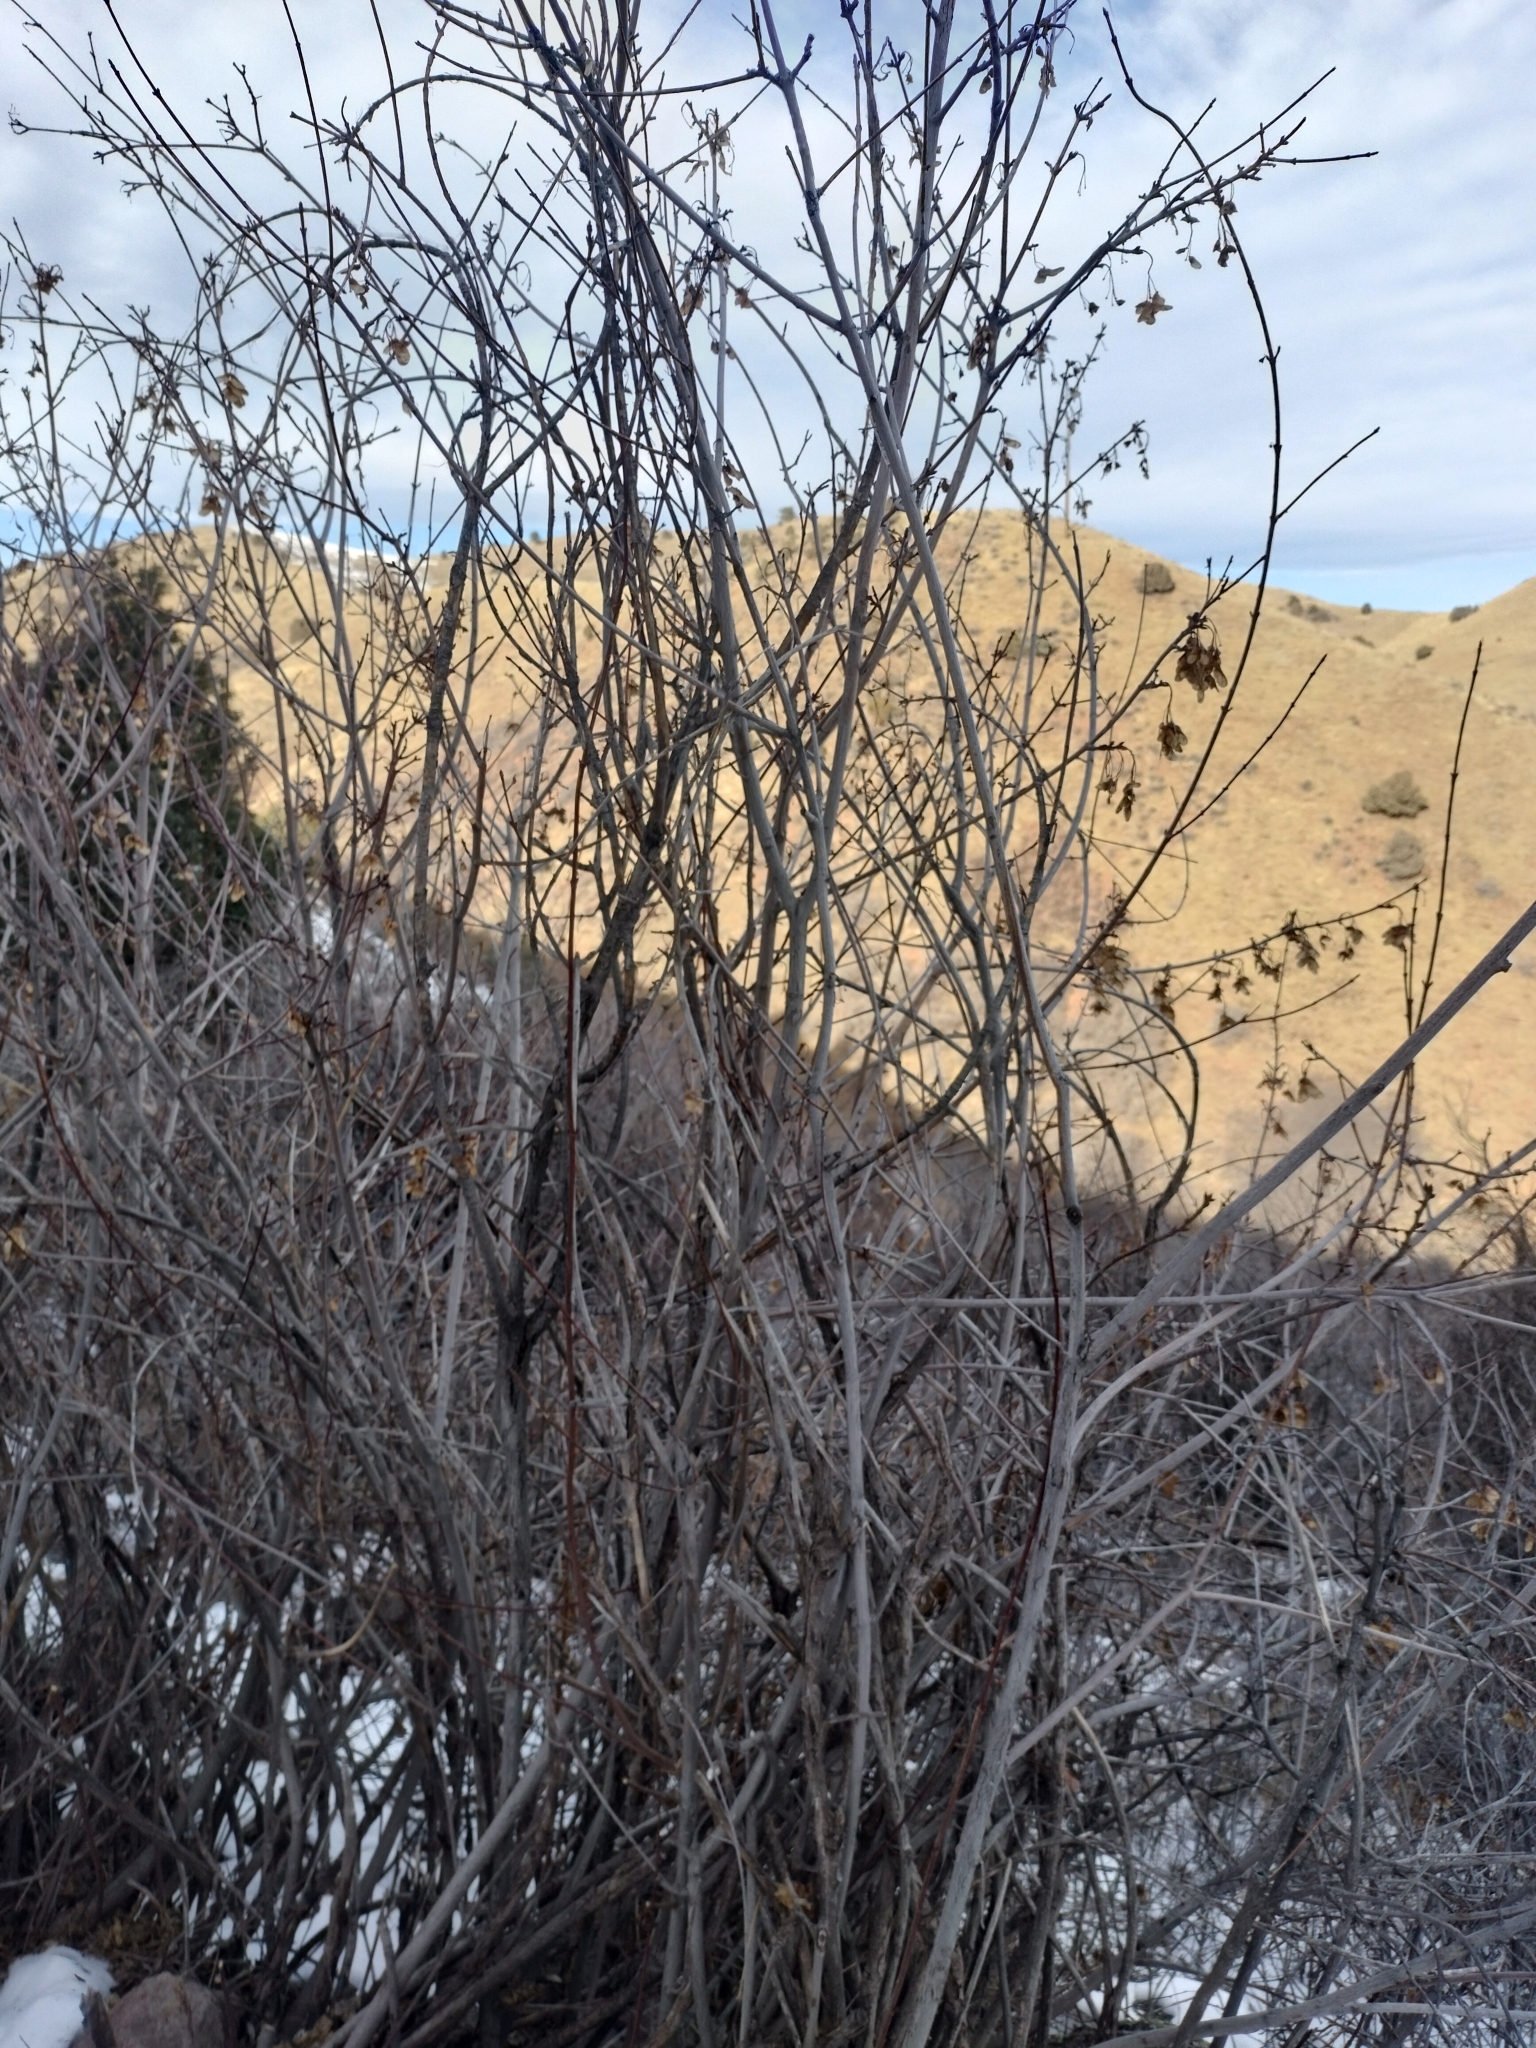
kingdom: Plantae
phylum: Tracheophyta
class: Magnoliopsida
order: Sapindales
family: Sapindaceae
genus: Acer
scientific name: Acer glabrum
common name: Rocky mountain maple
